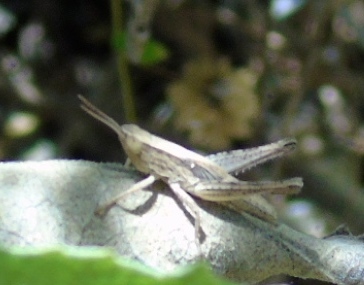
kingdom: Animalia
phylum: Arthropoda
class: Insecta
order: Orthoptera
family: Acrididae
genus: Dichromorpha
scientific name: Dichromorpha prominula
